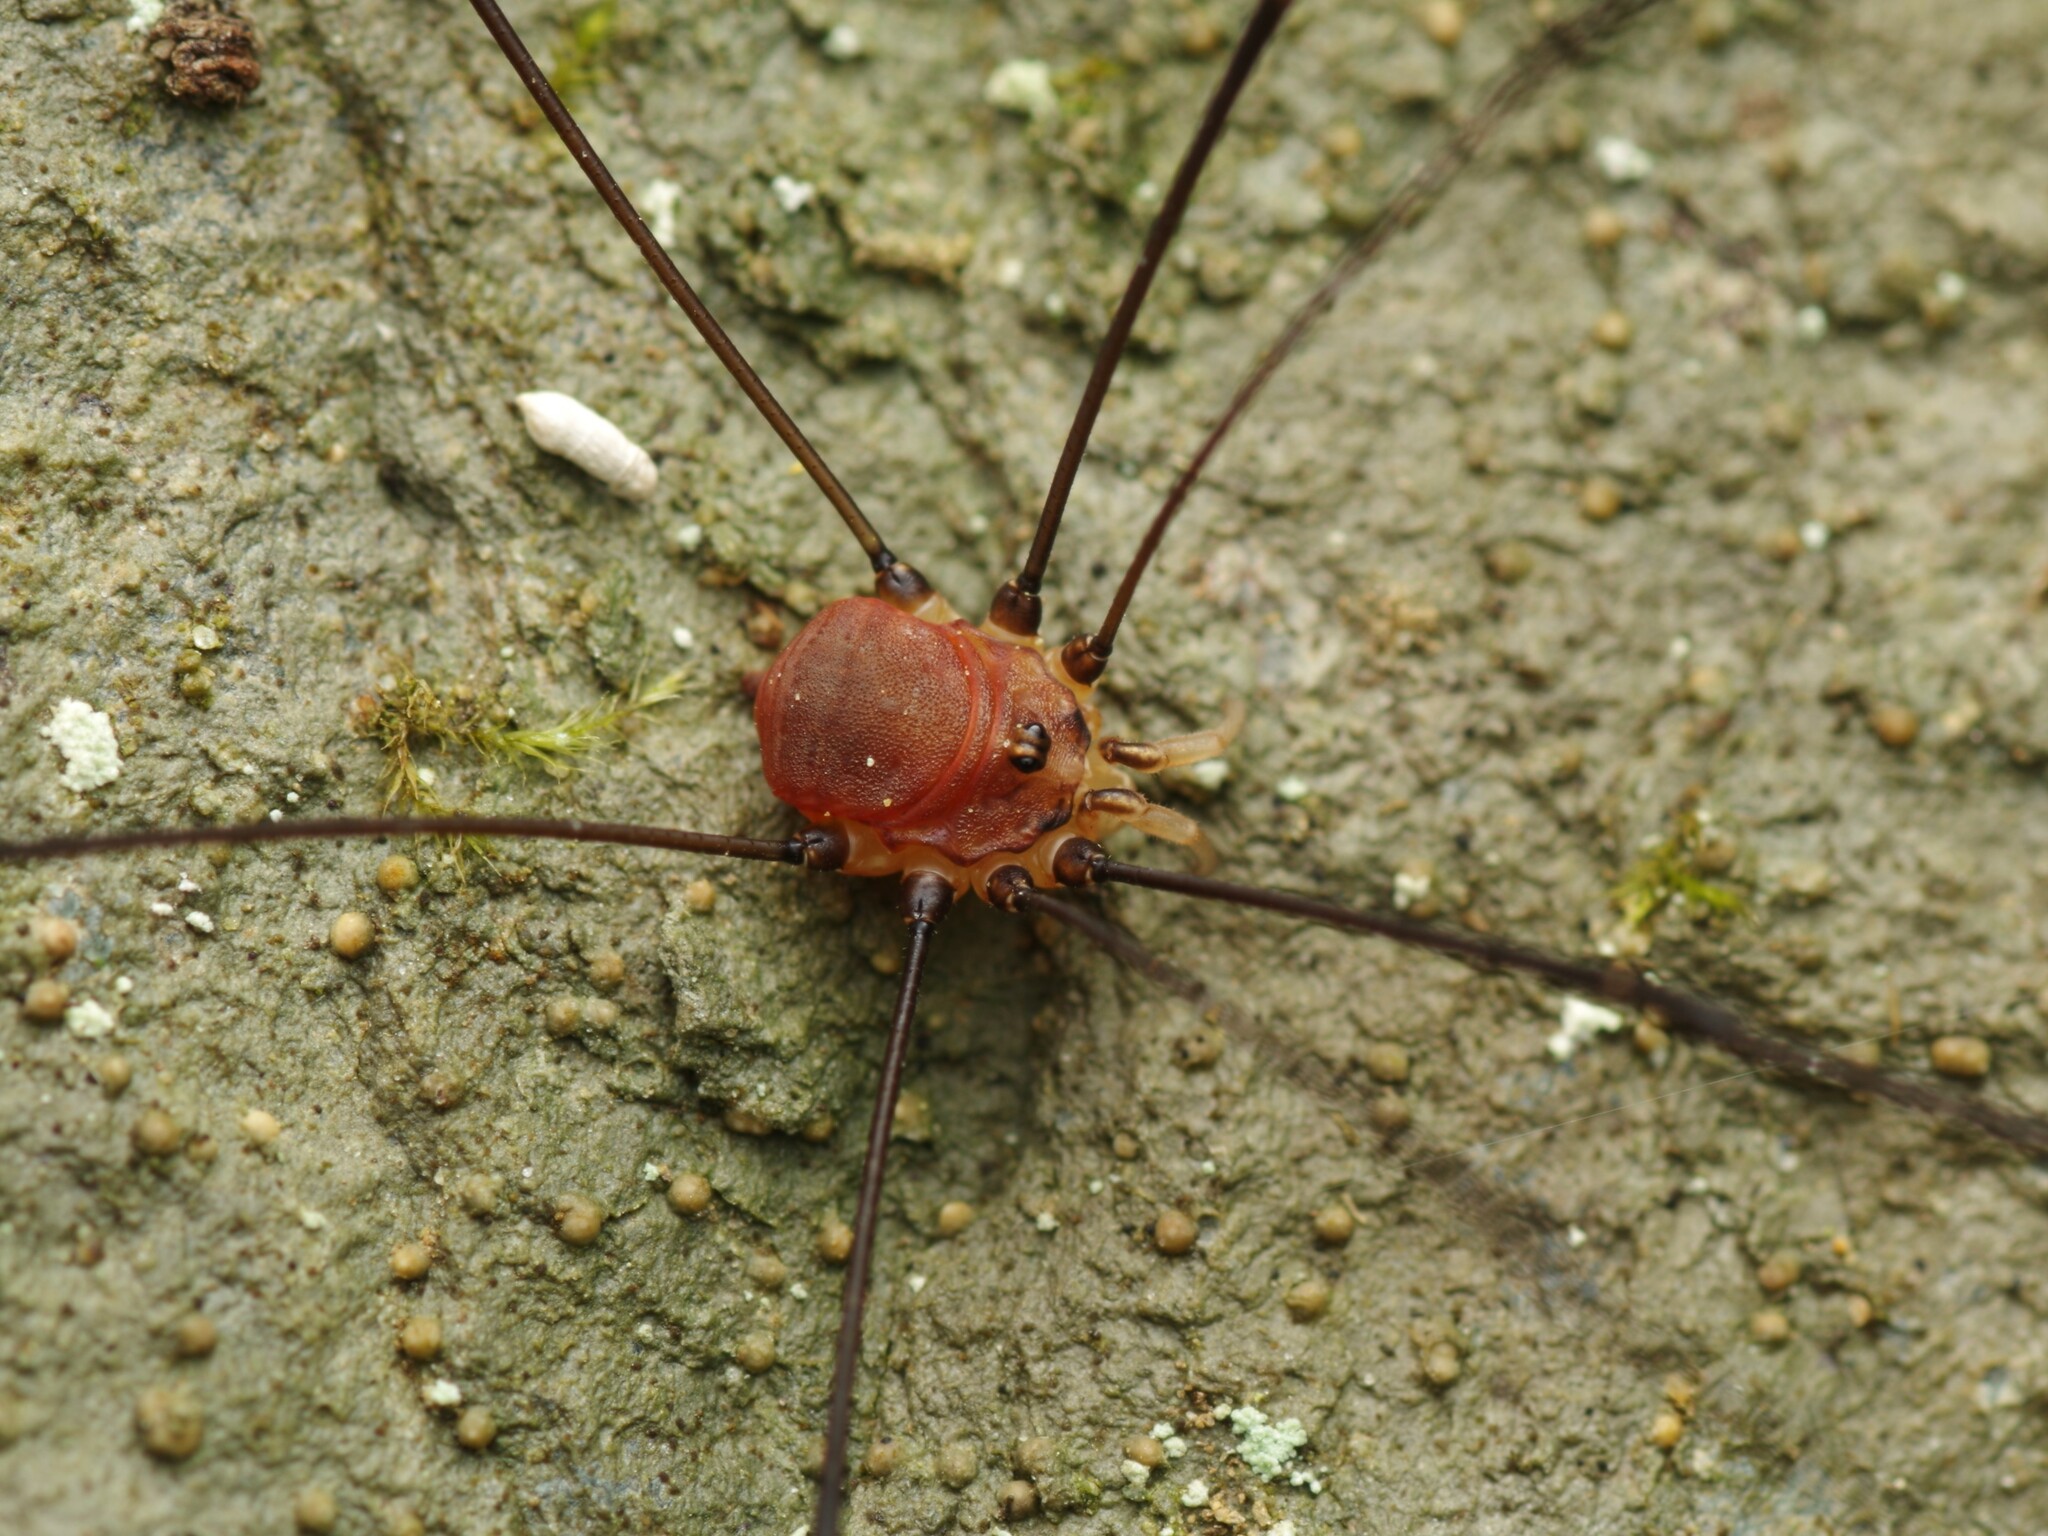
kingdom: Animalia
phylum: Arthropoda
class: Arachnida
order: Opiliones
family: Sclerosomatidae
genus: Leiobunum
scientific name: Leiobunum blackwalli
